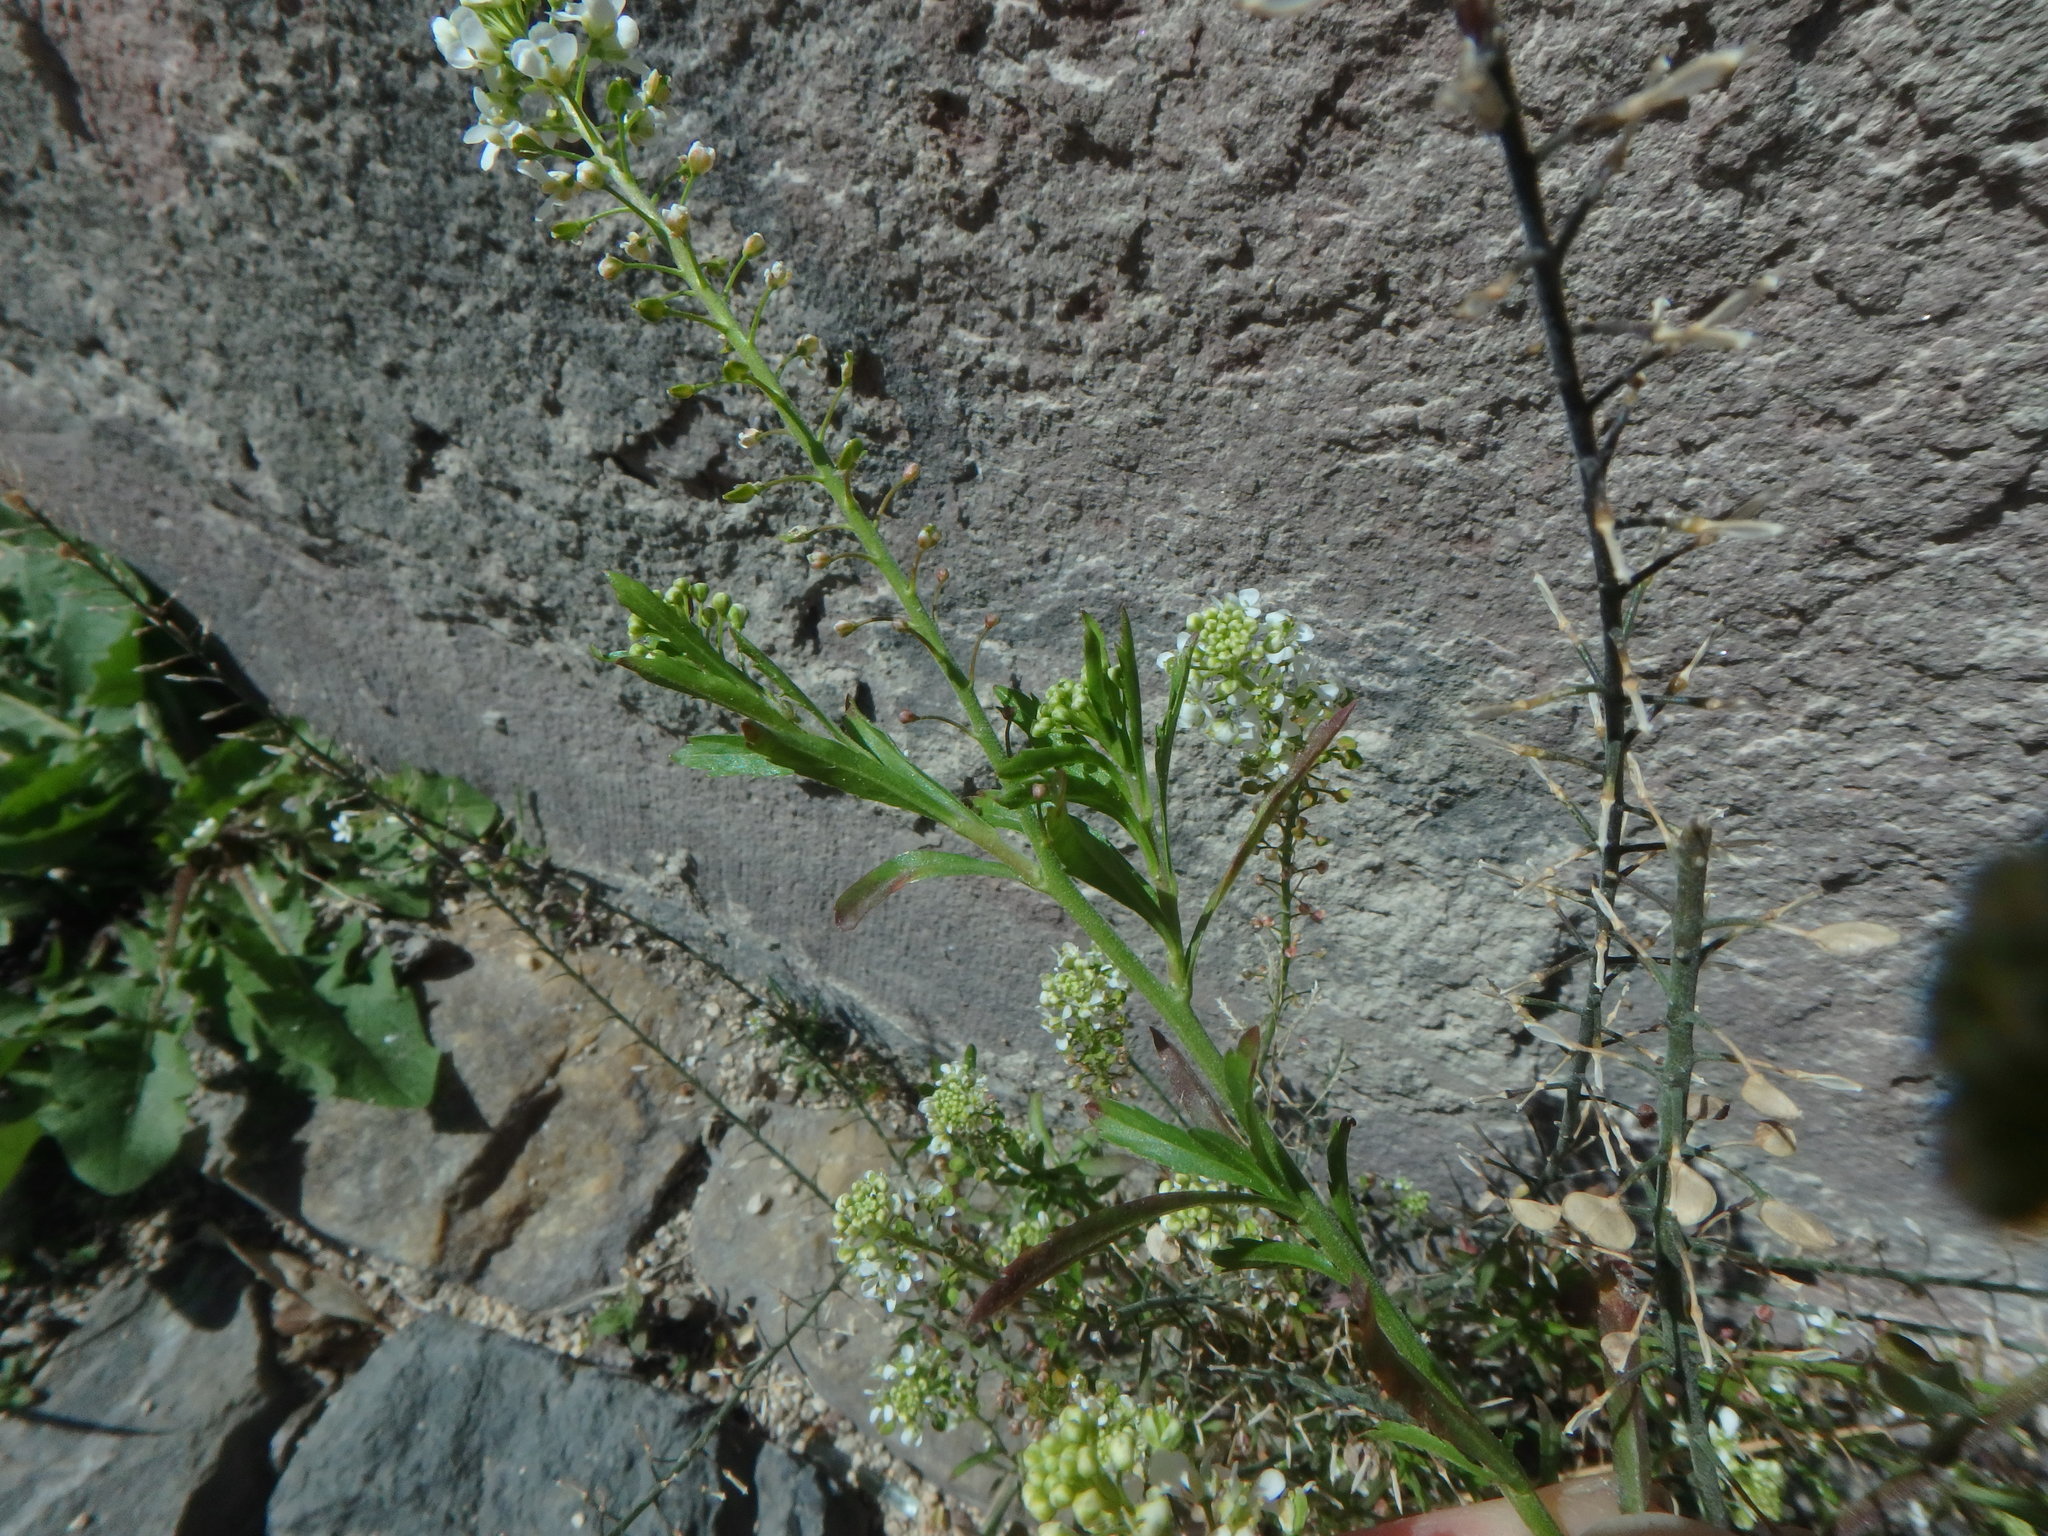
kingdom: Plantae
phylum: Tracheophyta
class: Magnoliopsida
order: Brassicales
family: Brassicaceae
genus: Lepidium
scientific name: Lepidium virginicum
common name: Least pepperwort
